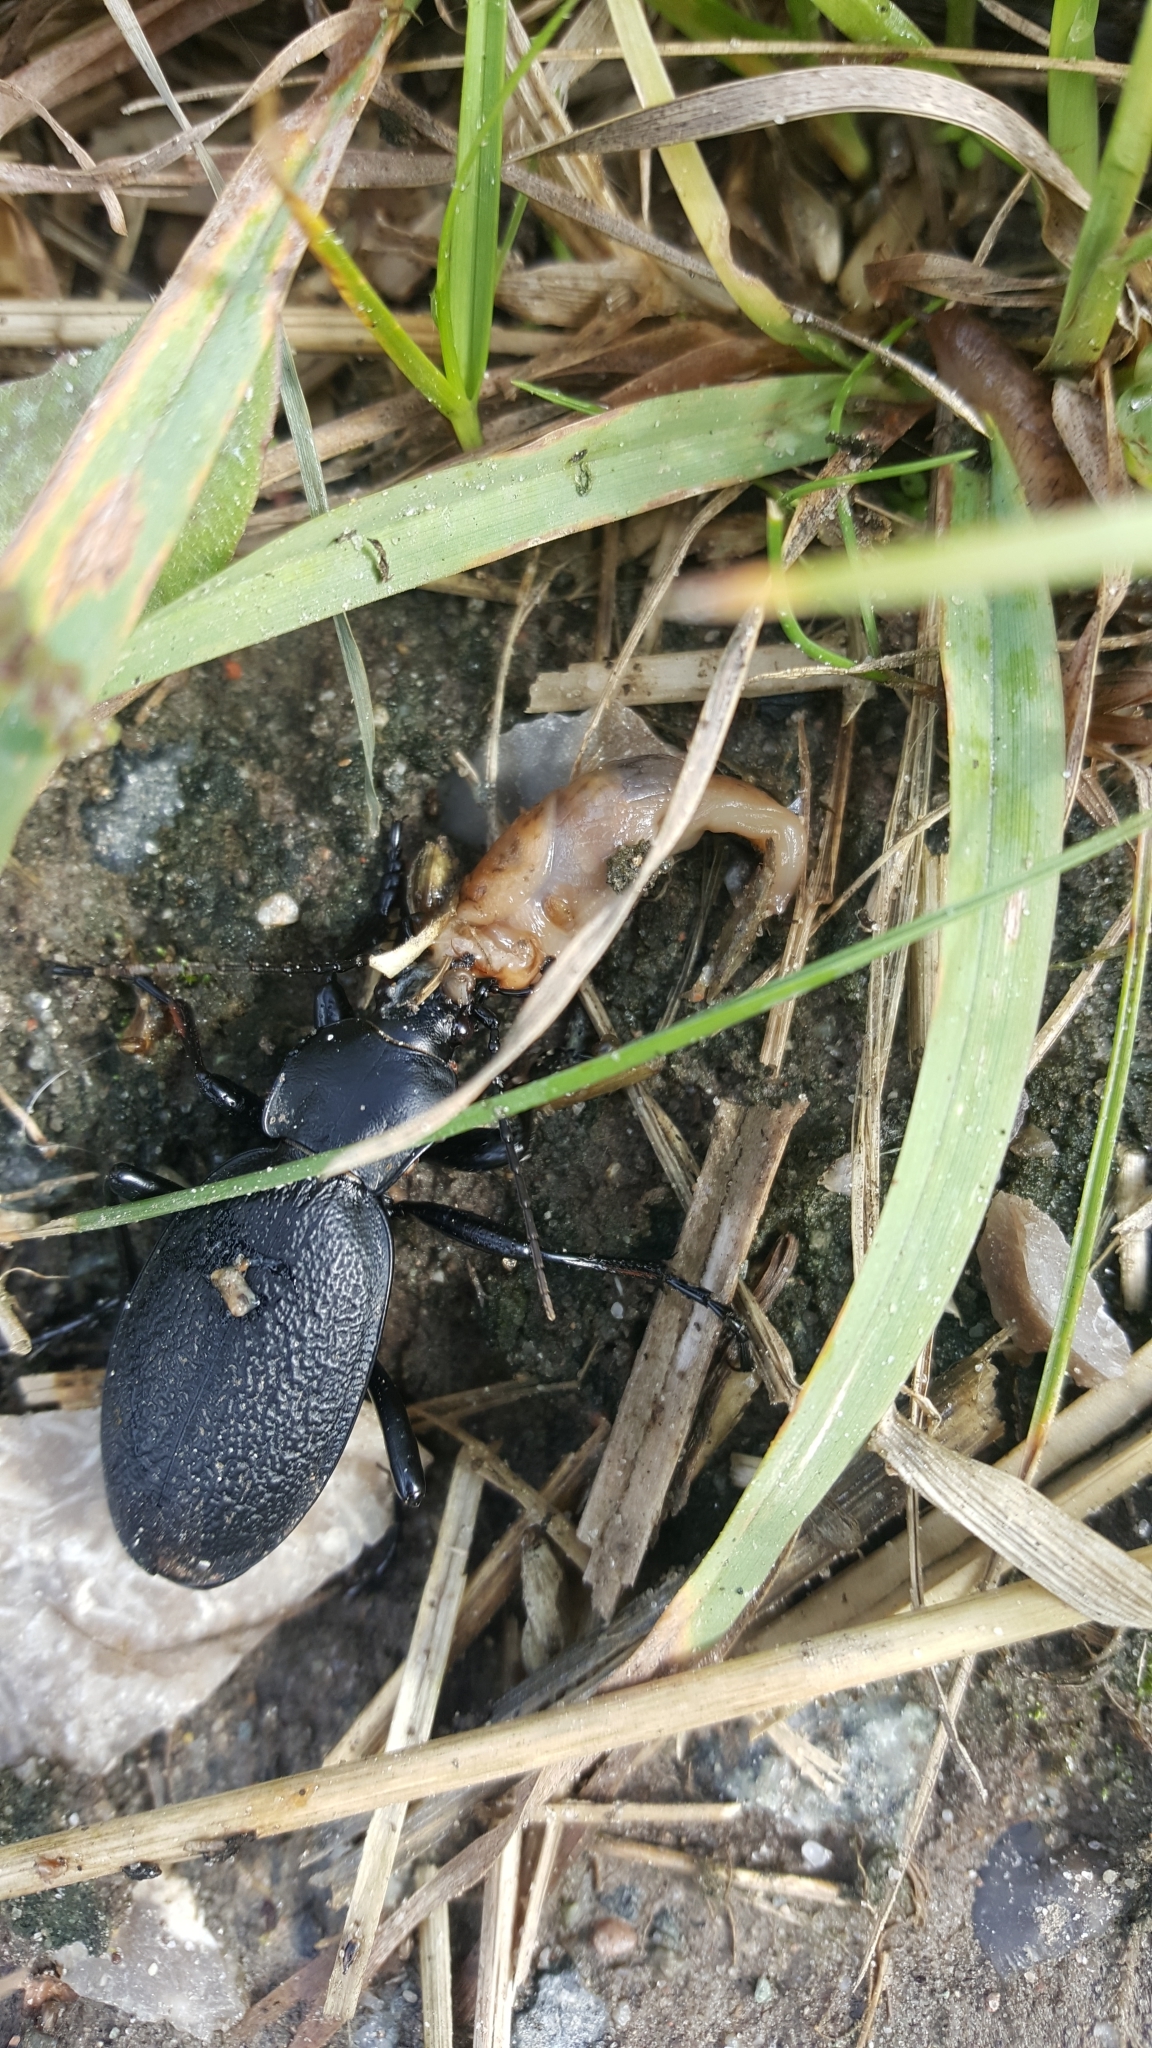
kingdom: Animalia
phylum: Arthropoda
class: Insecta
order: Coleoptera
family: Carabidae
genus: Carabus
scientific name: Carabus coriaceus
